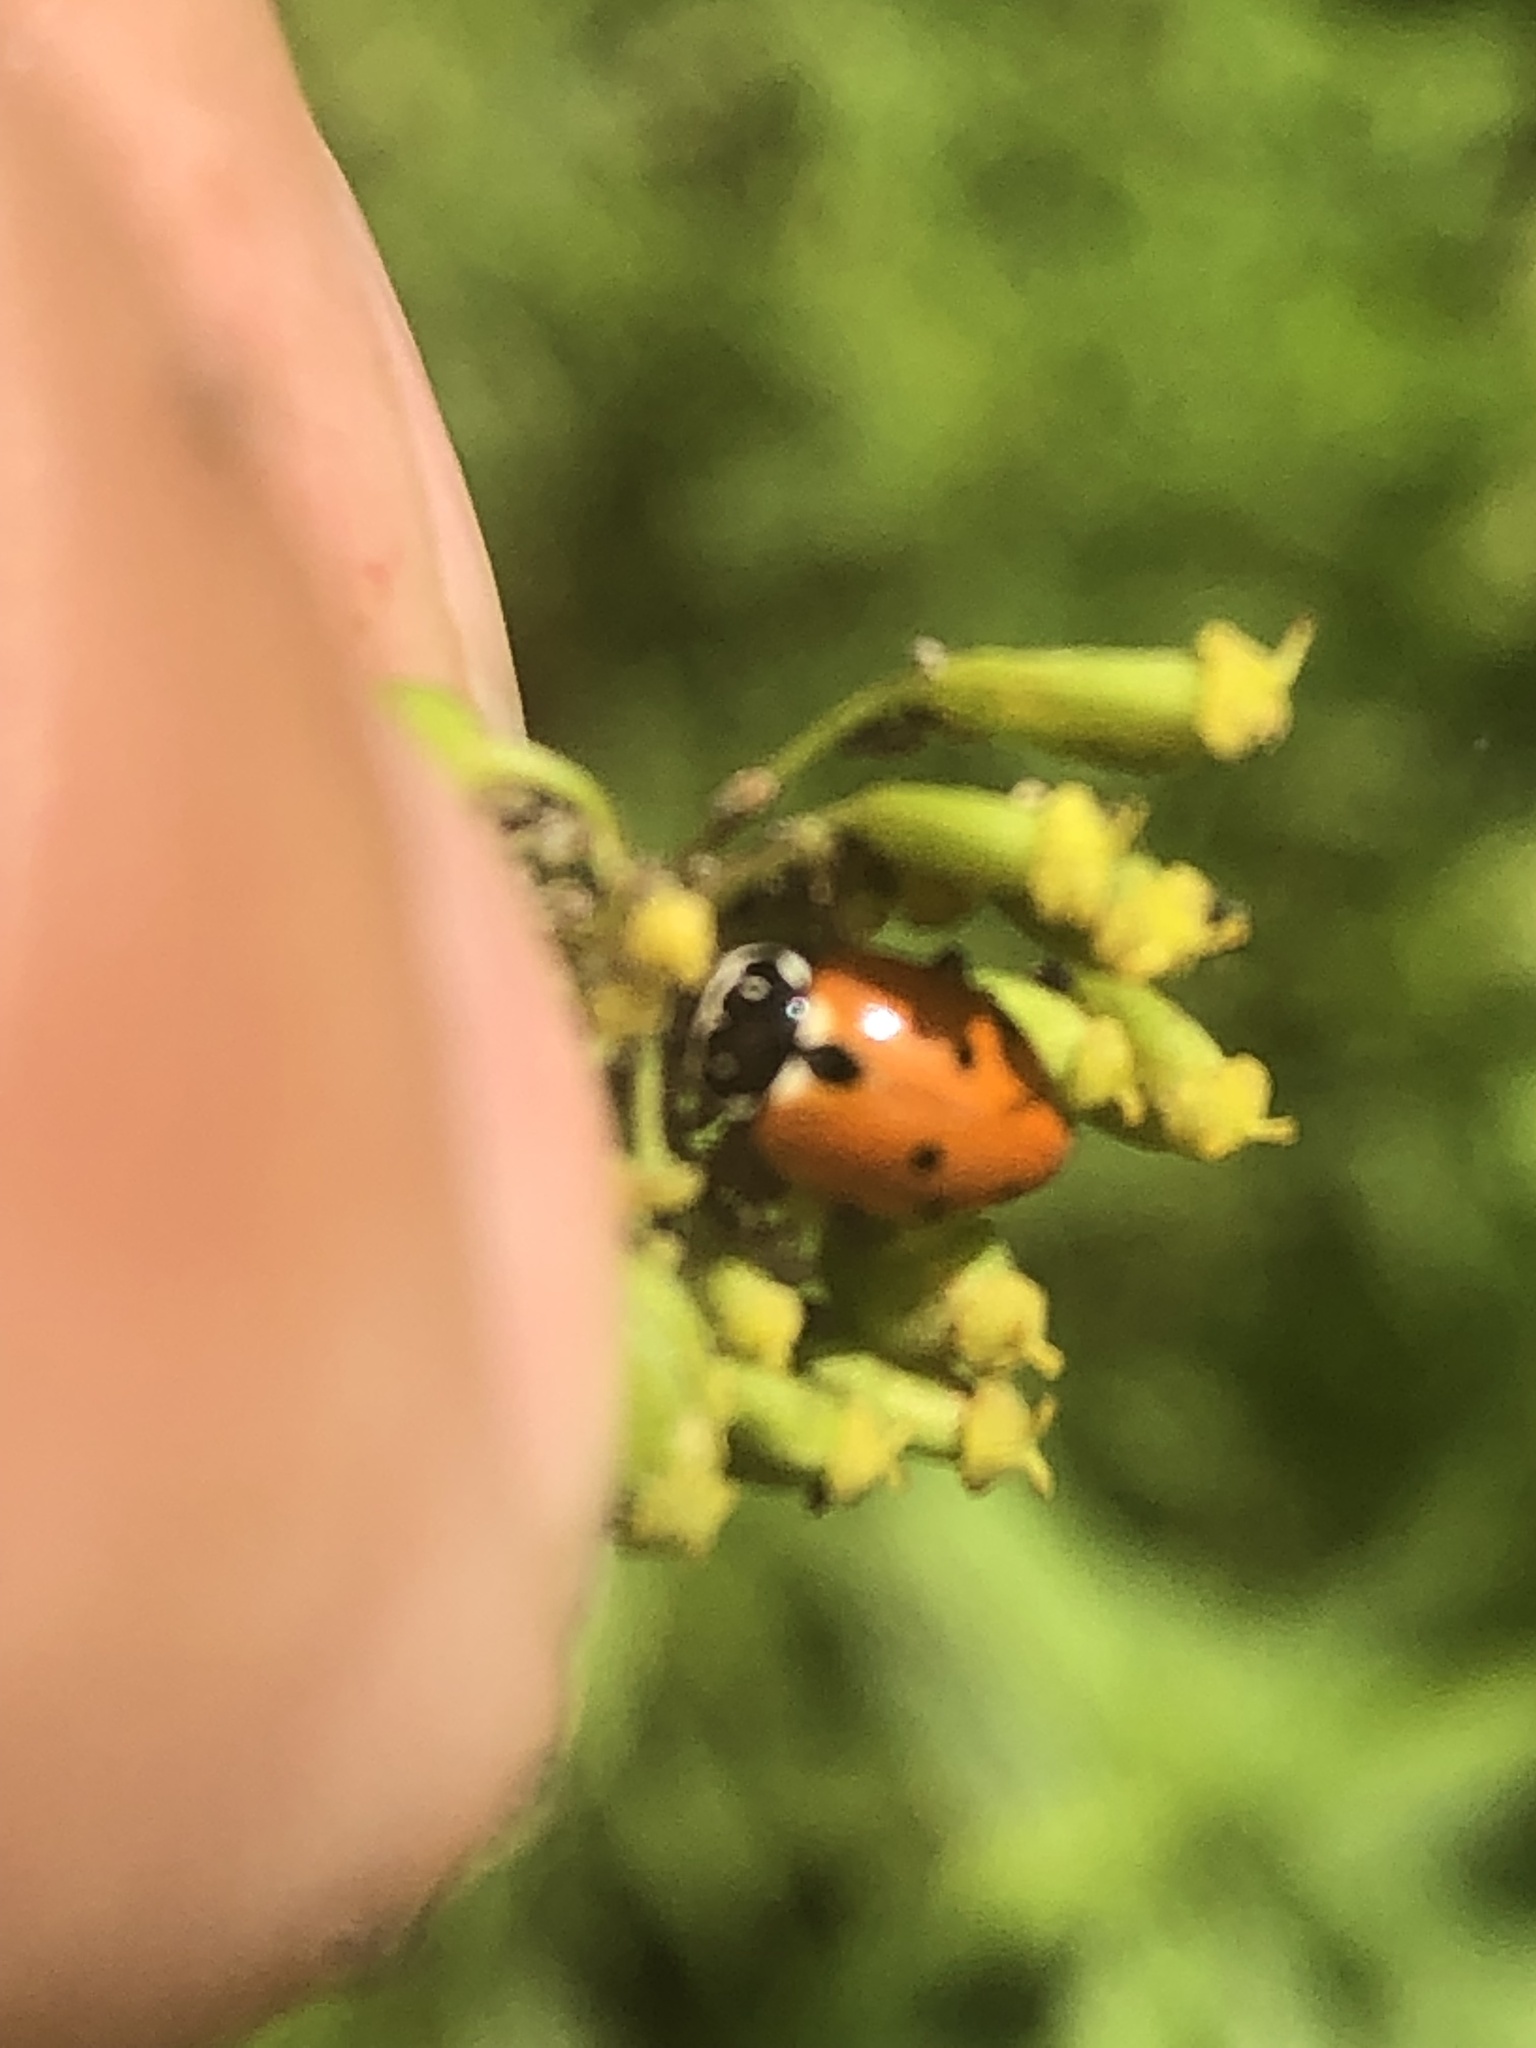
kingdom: Animalia
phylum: Arthropoda
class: Insecta
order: Coleoptera
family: Coccinellidae
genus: Hippodamia
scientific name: Hippodamia variegata
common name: Ladybird beetle
